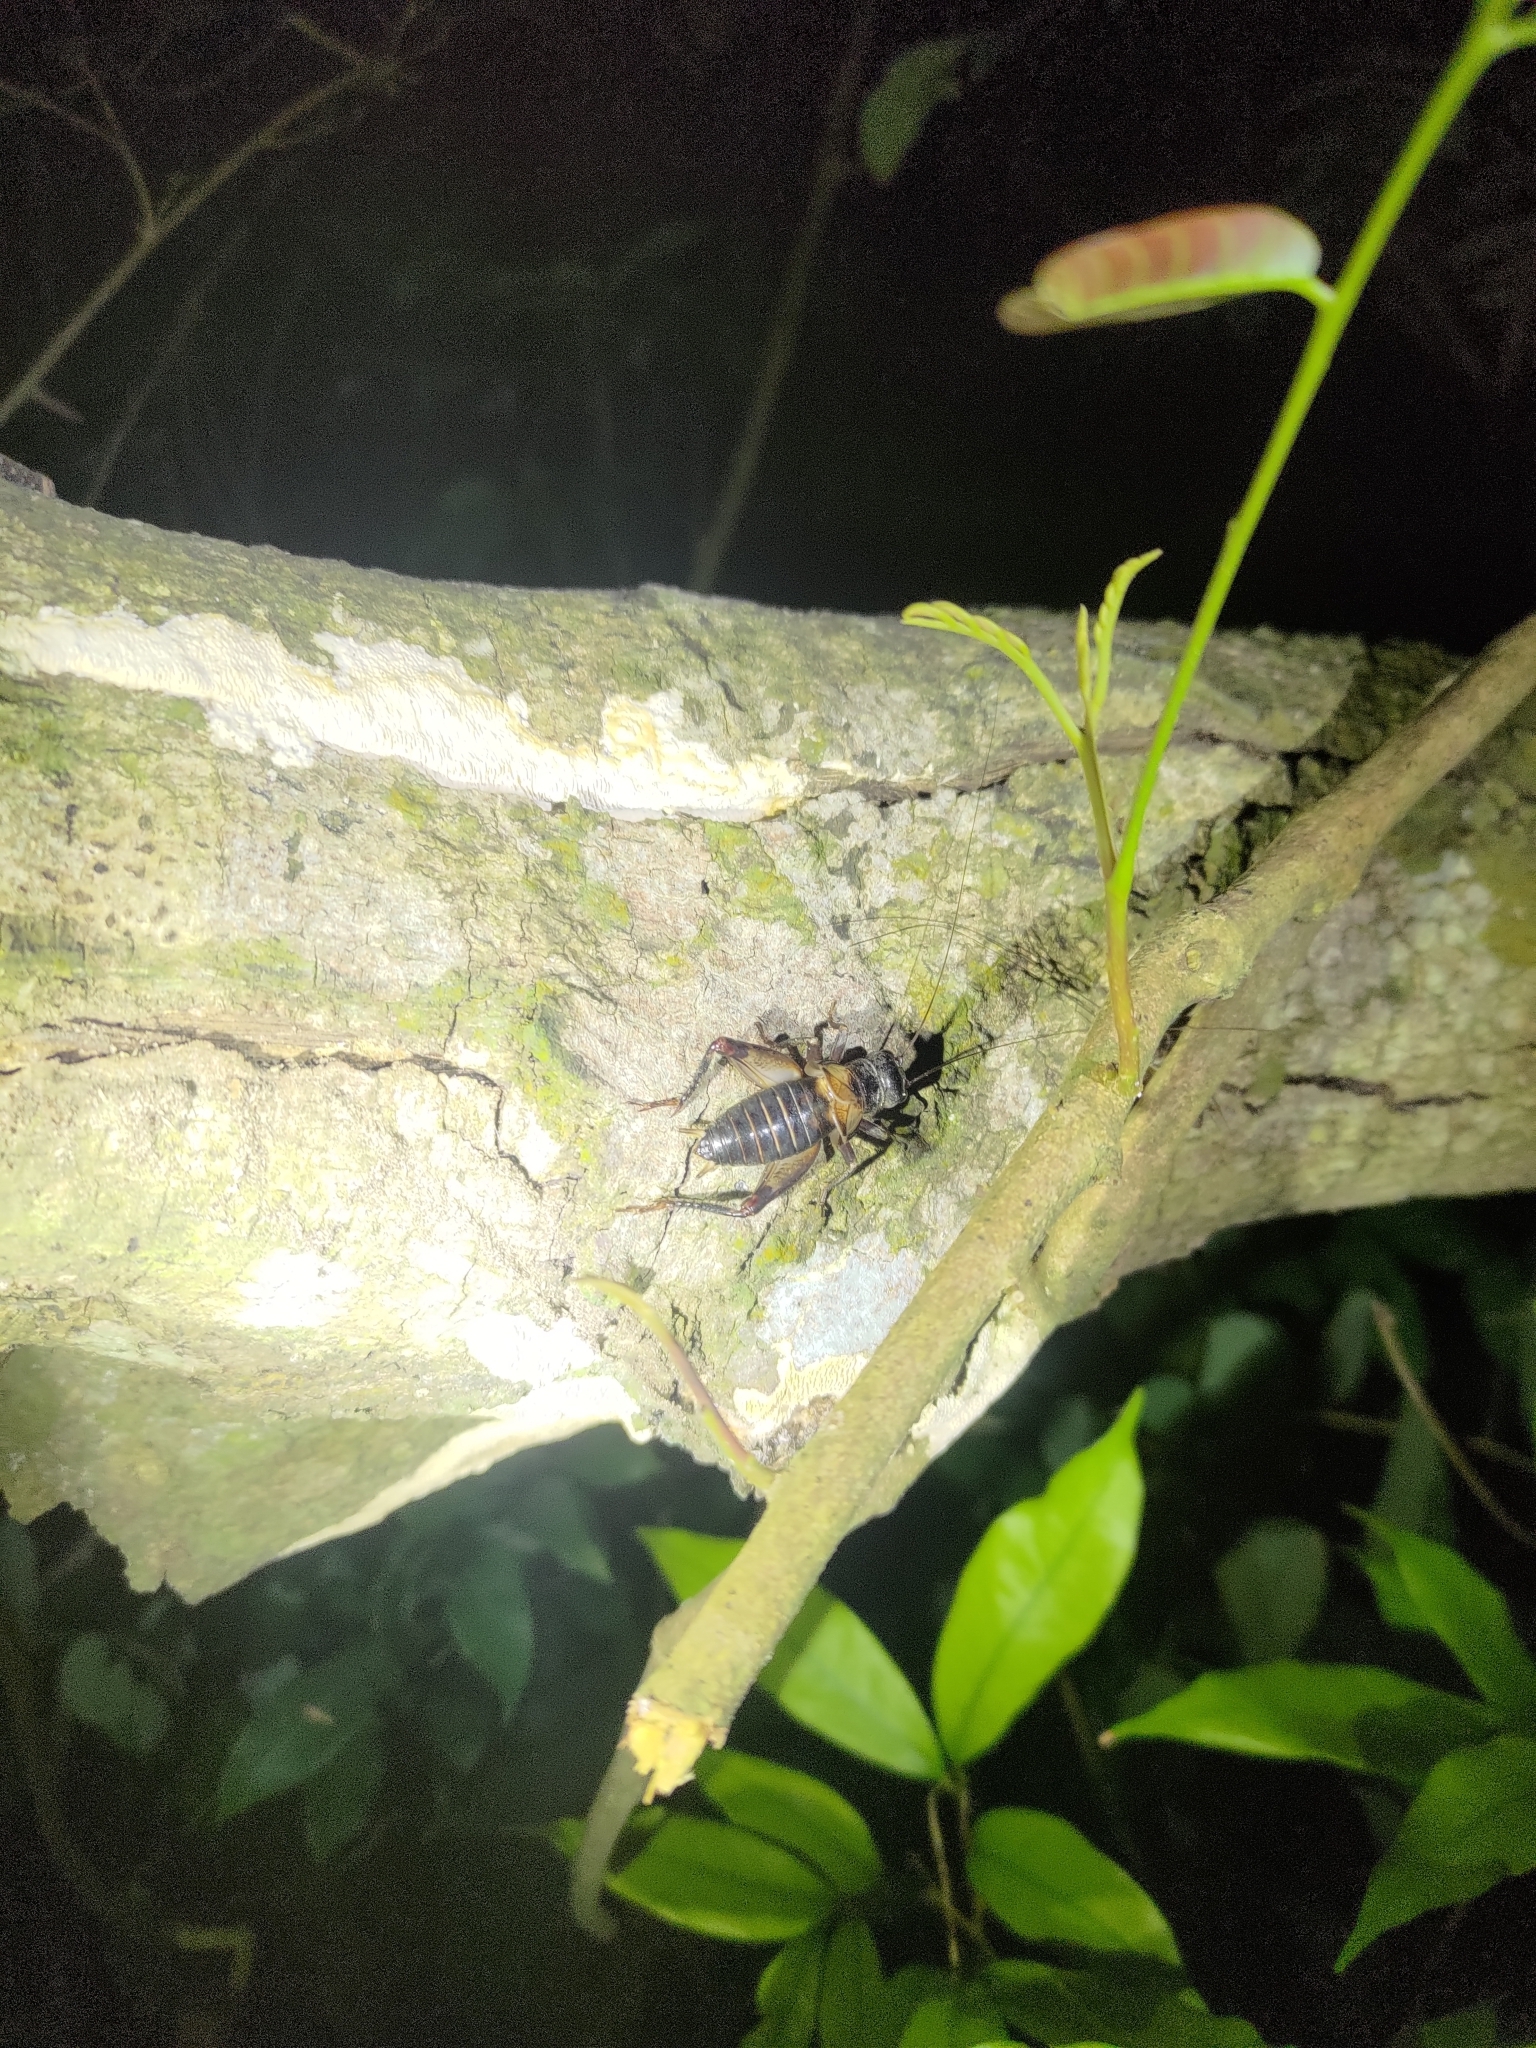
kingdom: Animalia
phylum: Arthropoda
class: Insecta
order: Orthoptera
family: Gryllidae
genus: Duolandrevus
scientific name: Duolandrevus coulonianus
